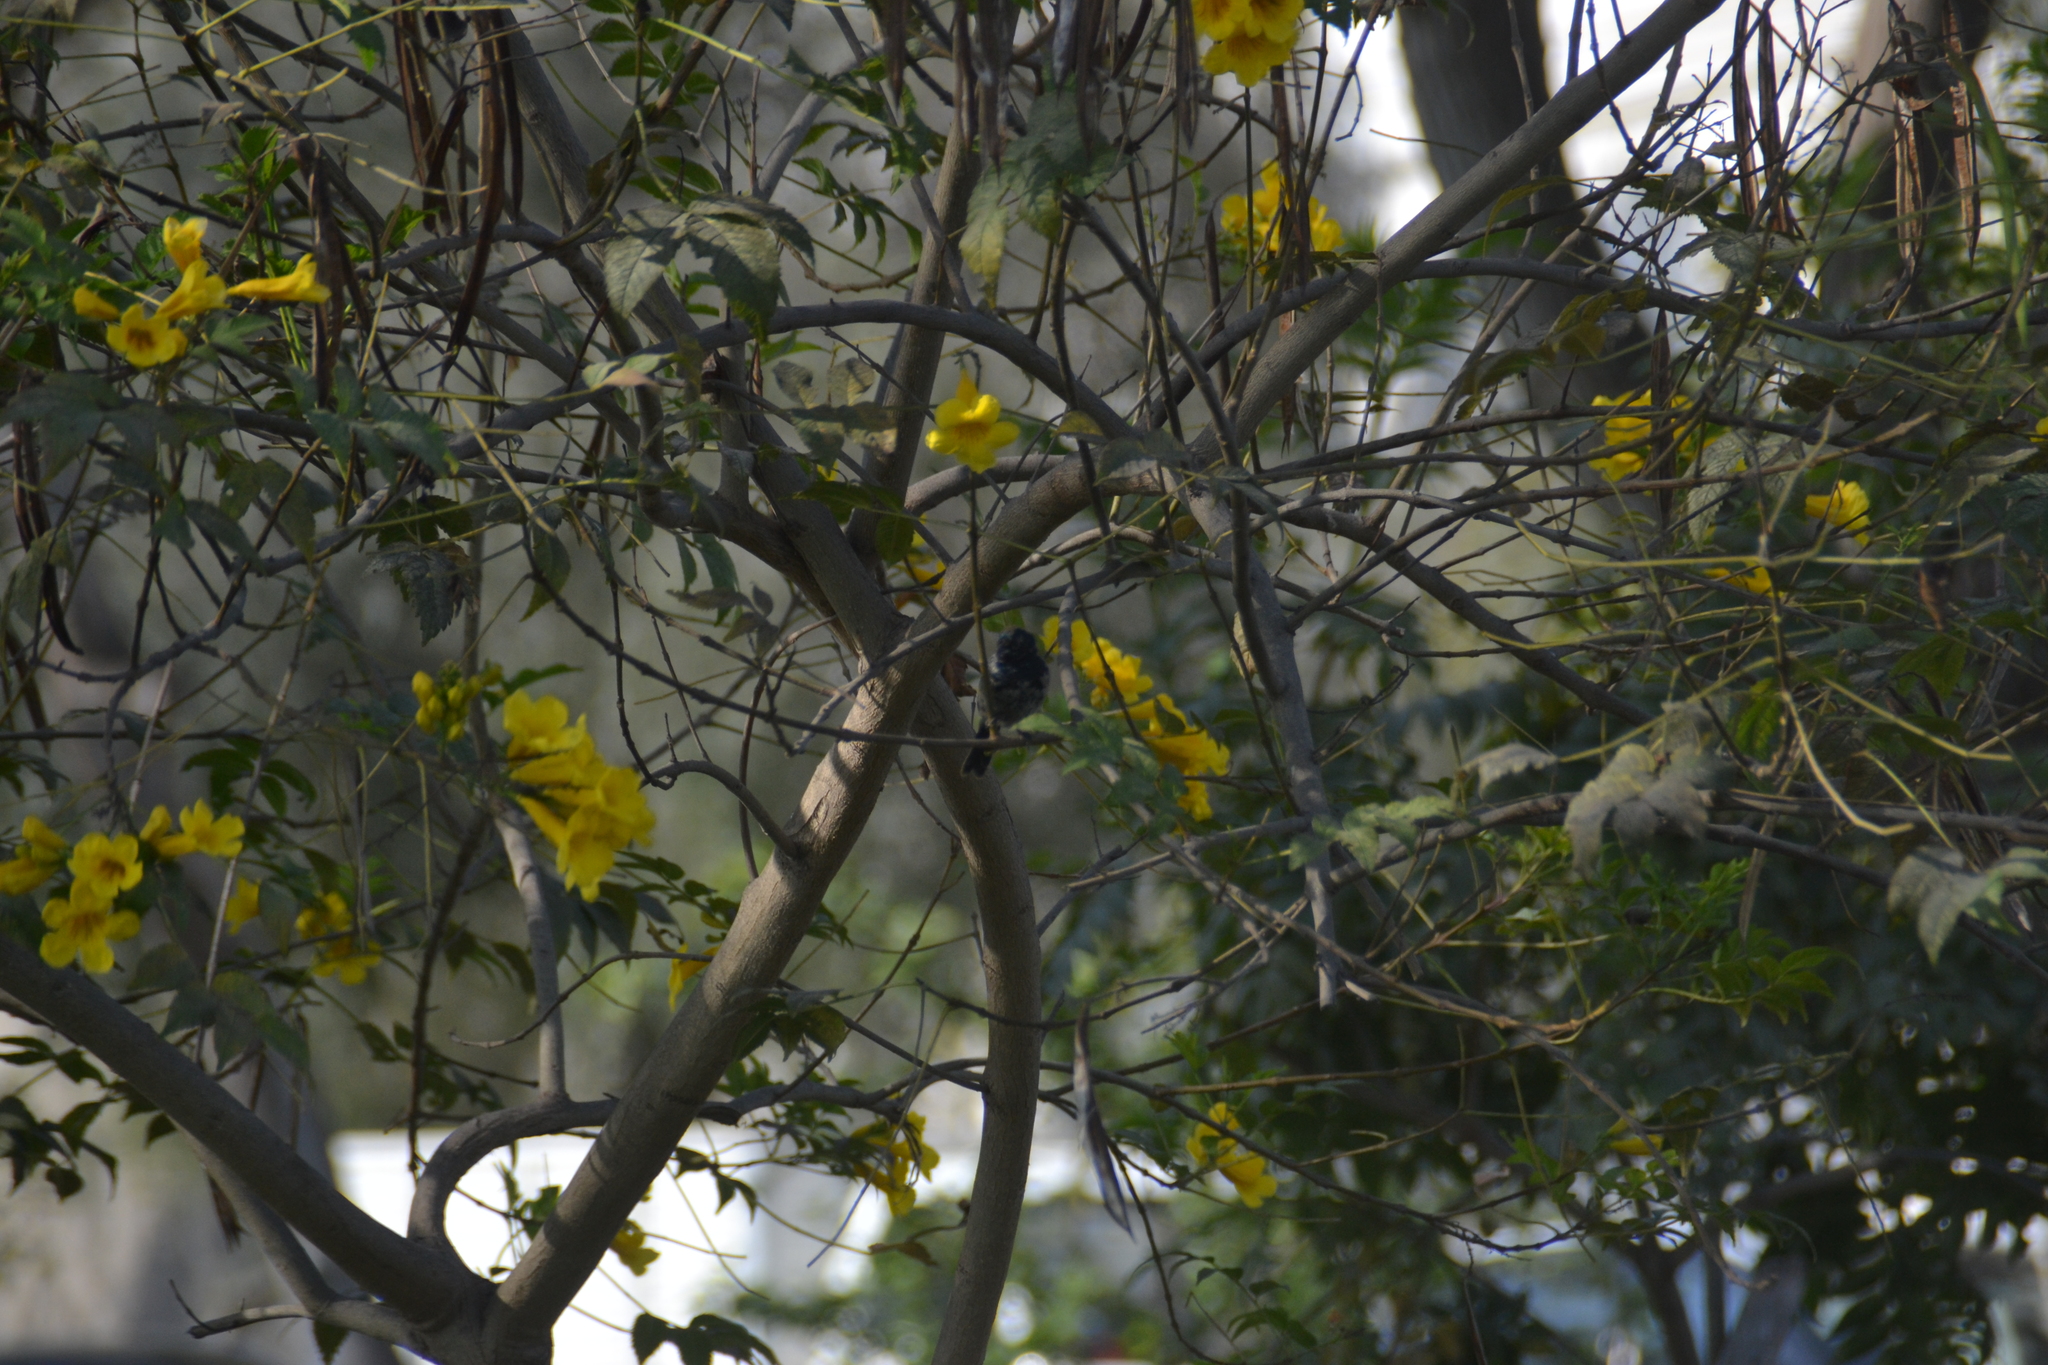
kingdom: Animalia
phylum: Chordata
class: Aves
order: Passeriformes
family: Thraupidae
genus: Volatinia
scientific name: Volatinia jacarina
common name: Blue-black grassquit
